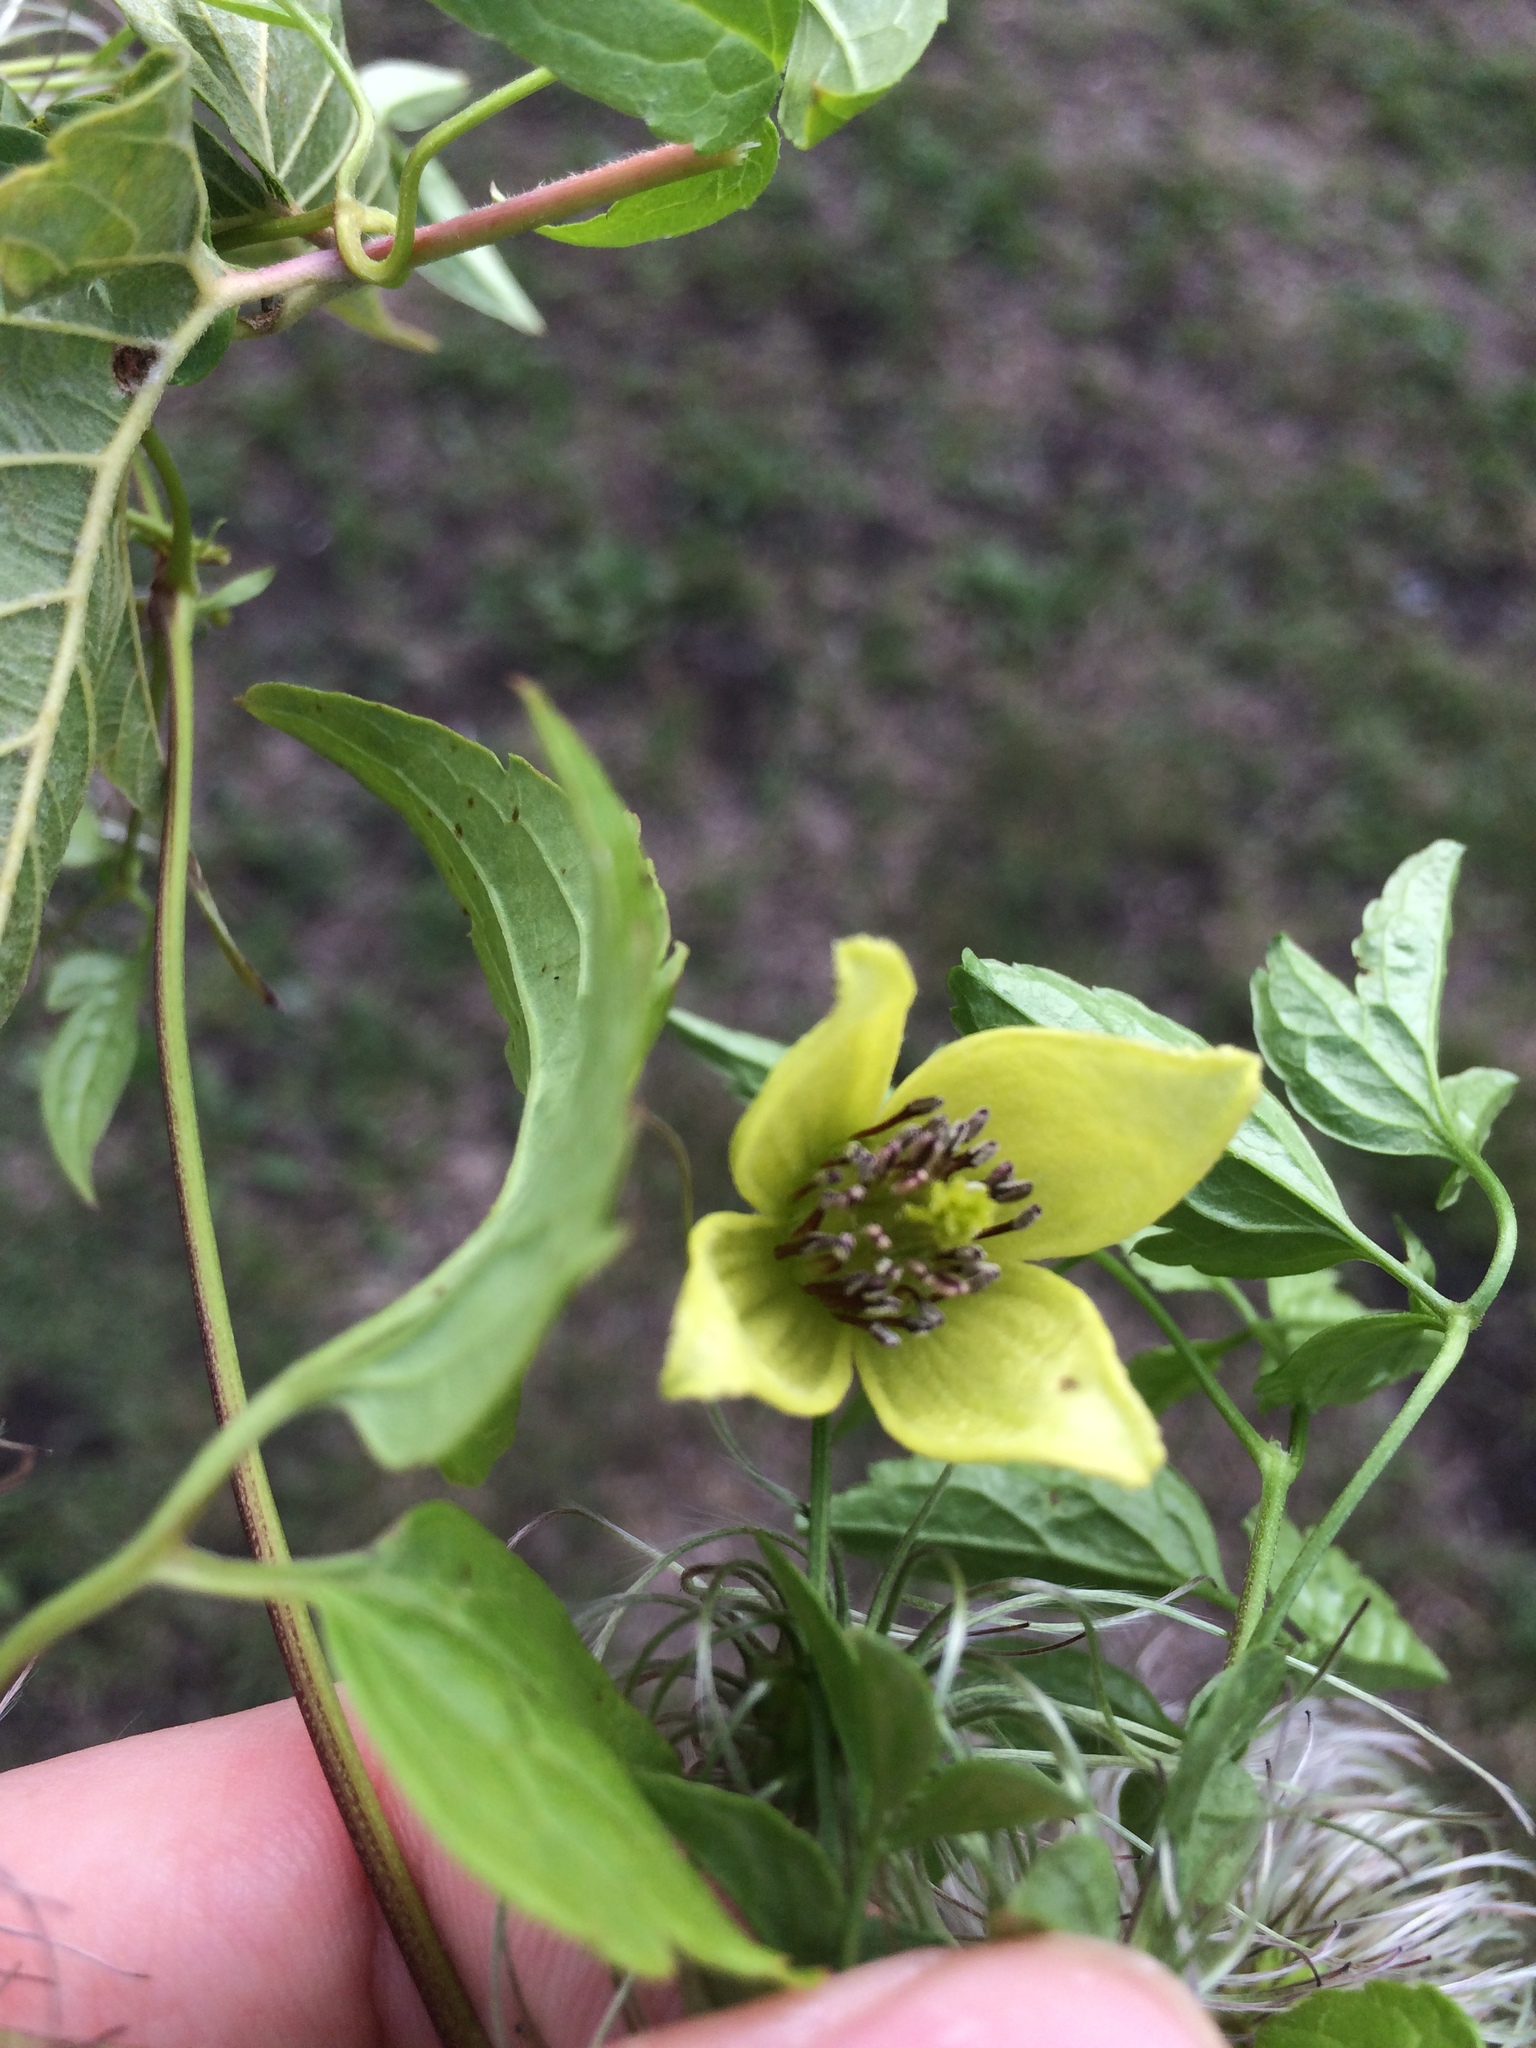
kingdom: Plantae
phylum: Tracheophyta
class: Magnoliopsida
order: Ranunculales
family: Ranunculaceae
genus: Clematis
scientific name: Clematis serratifolia
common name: Korean clematis
